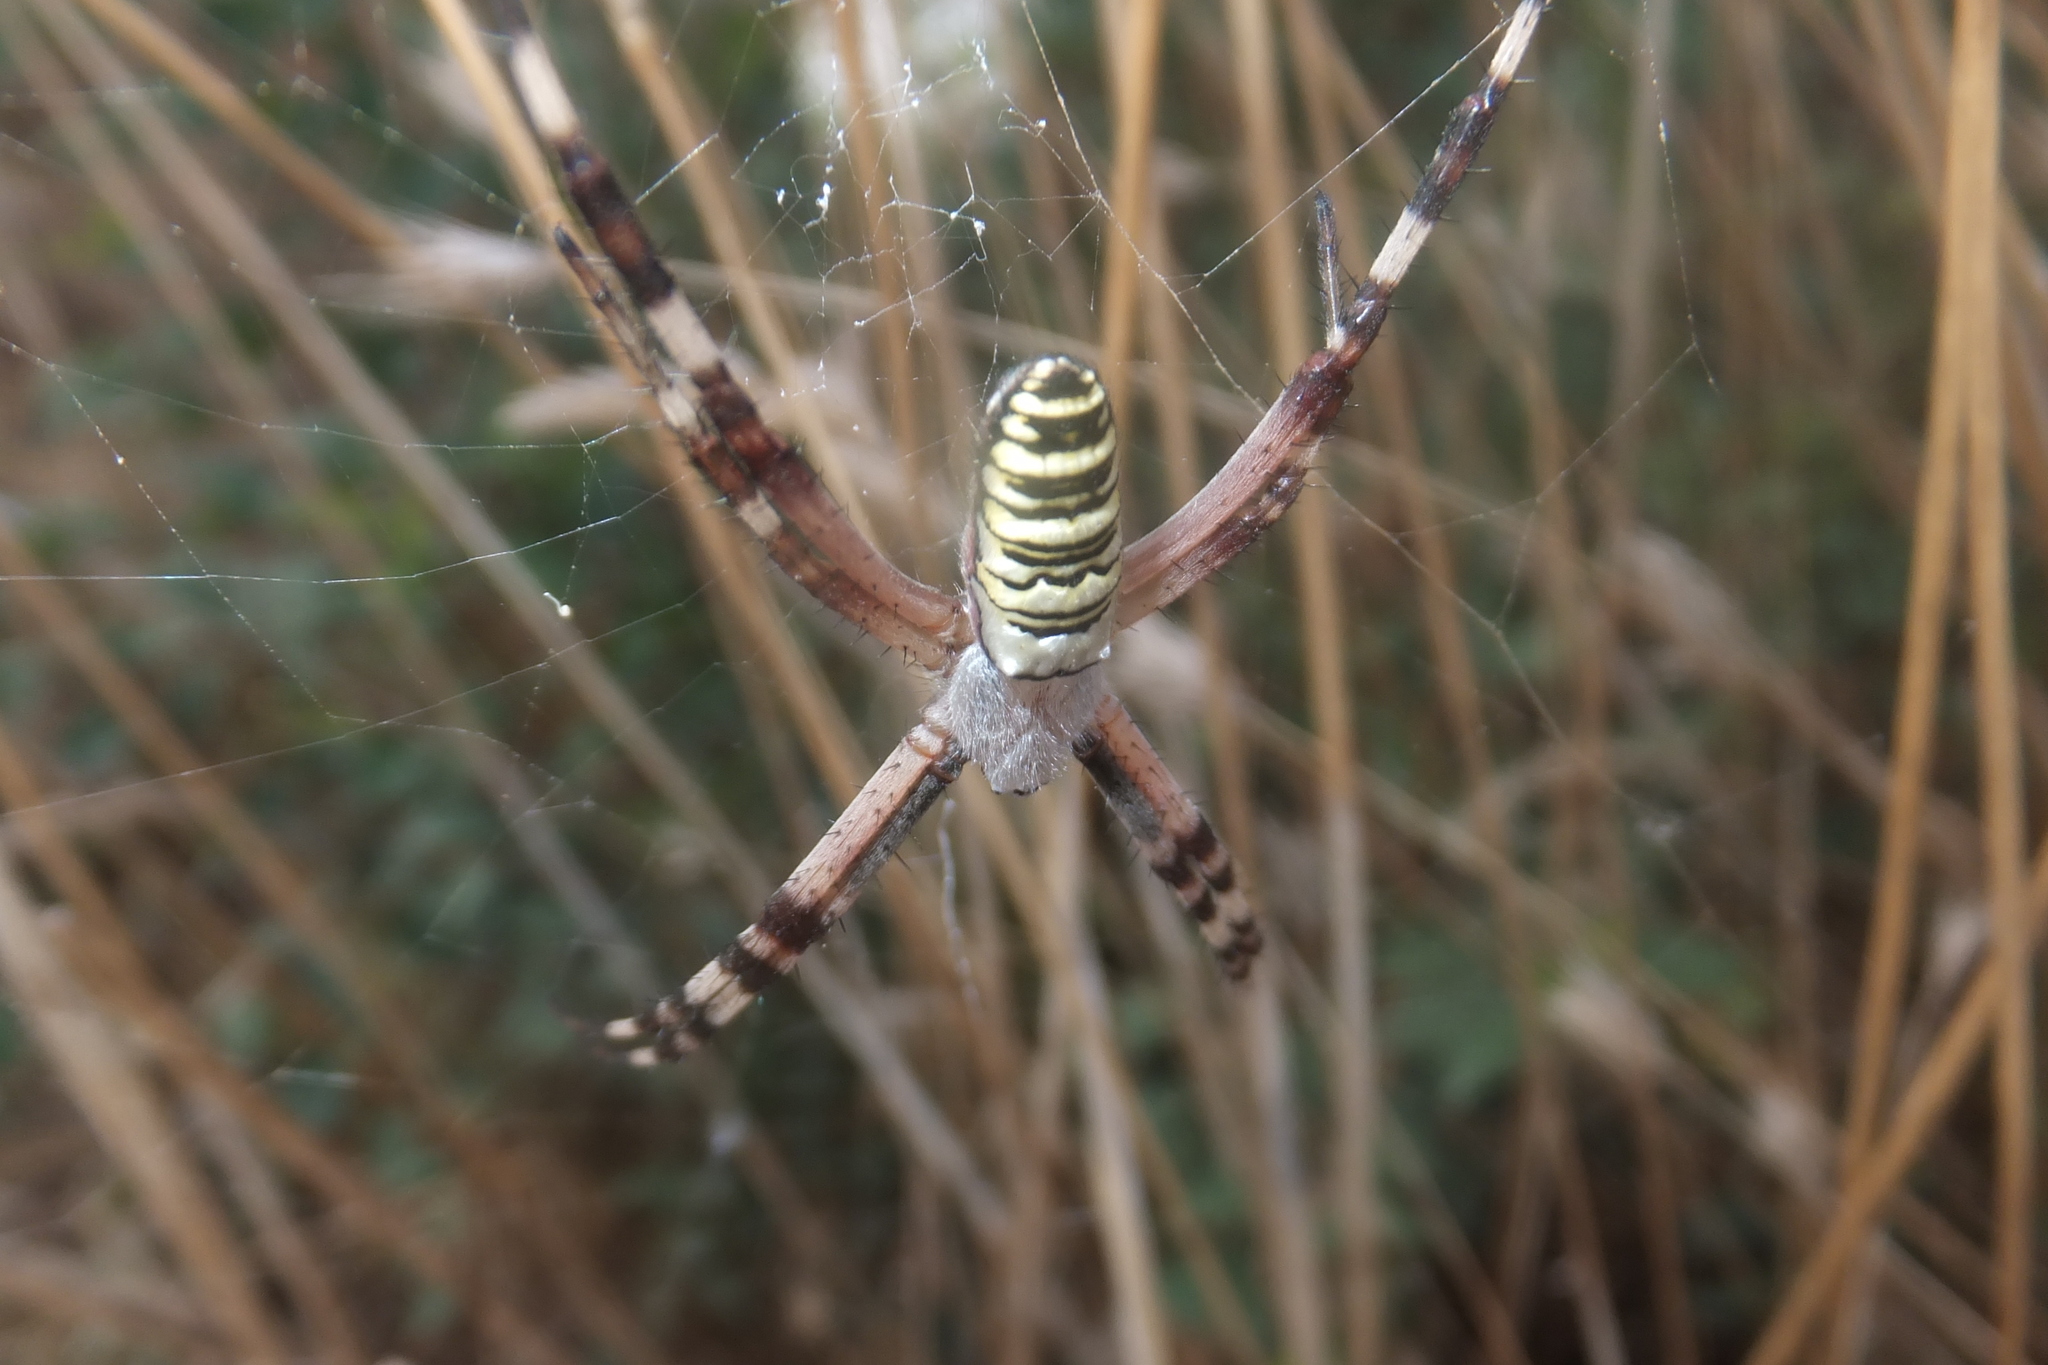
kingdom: Animalia
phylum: Arthropoda
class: Arachnida
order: Araneae
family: Araneidae
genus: Argiope
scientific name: Argiope bruennichi
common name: Wasp spider
